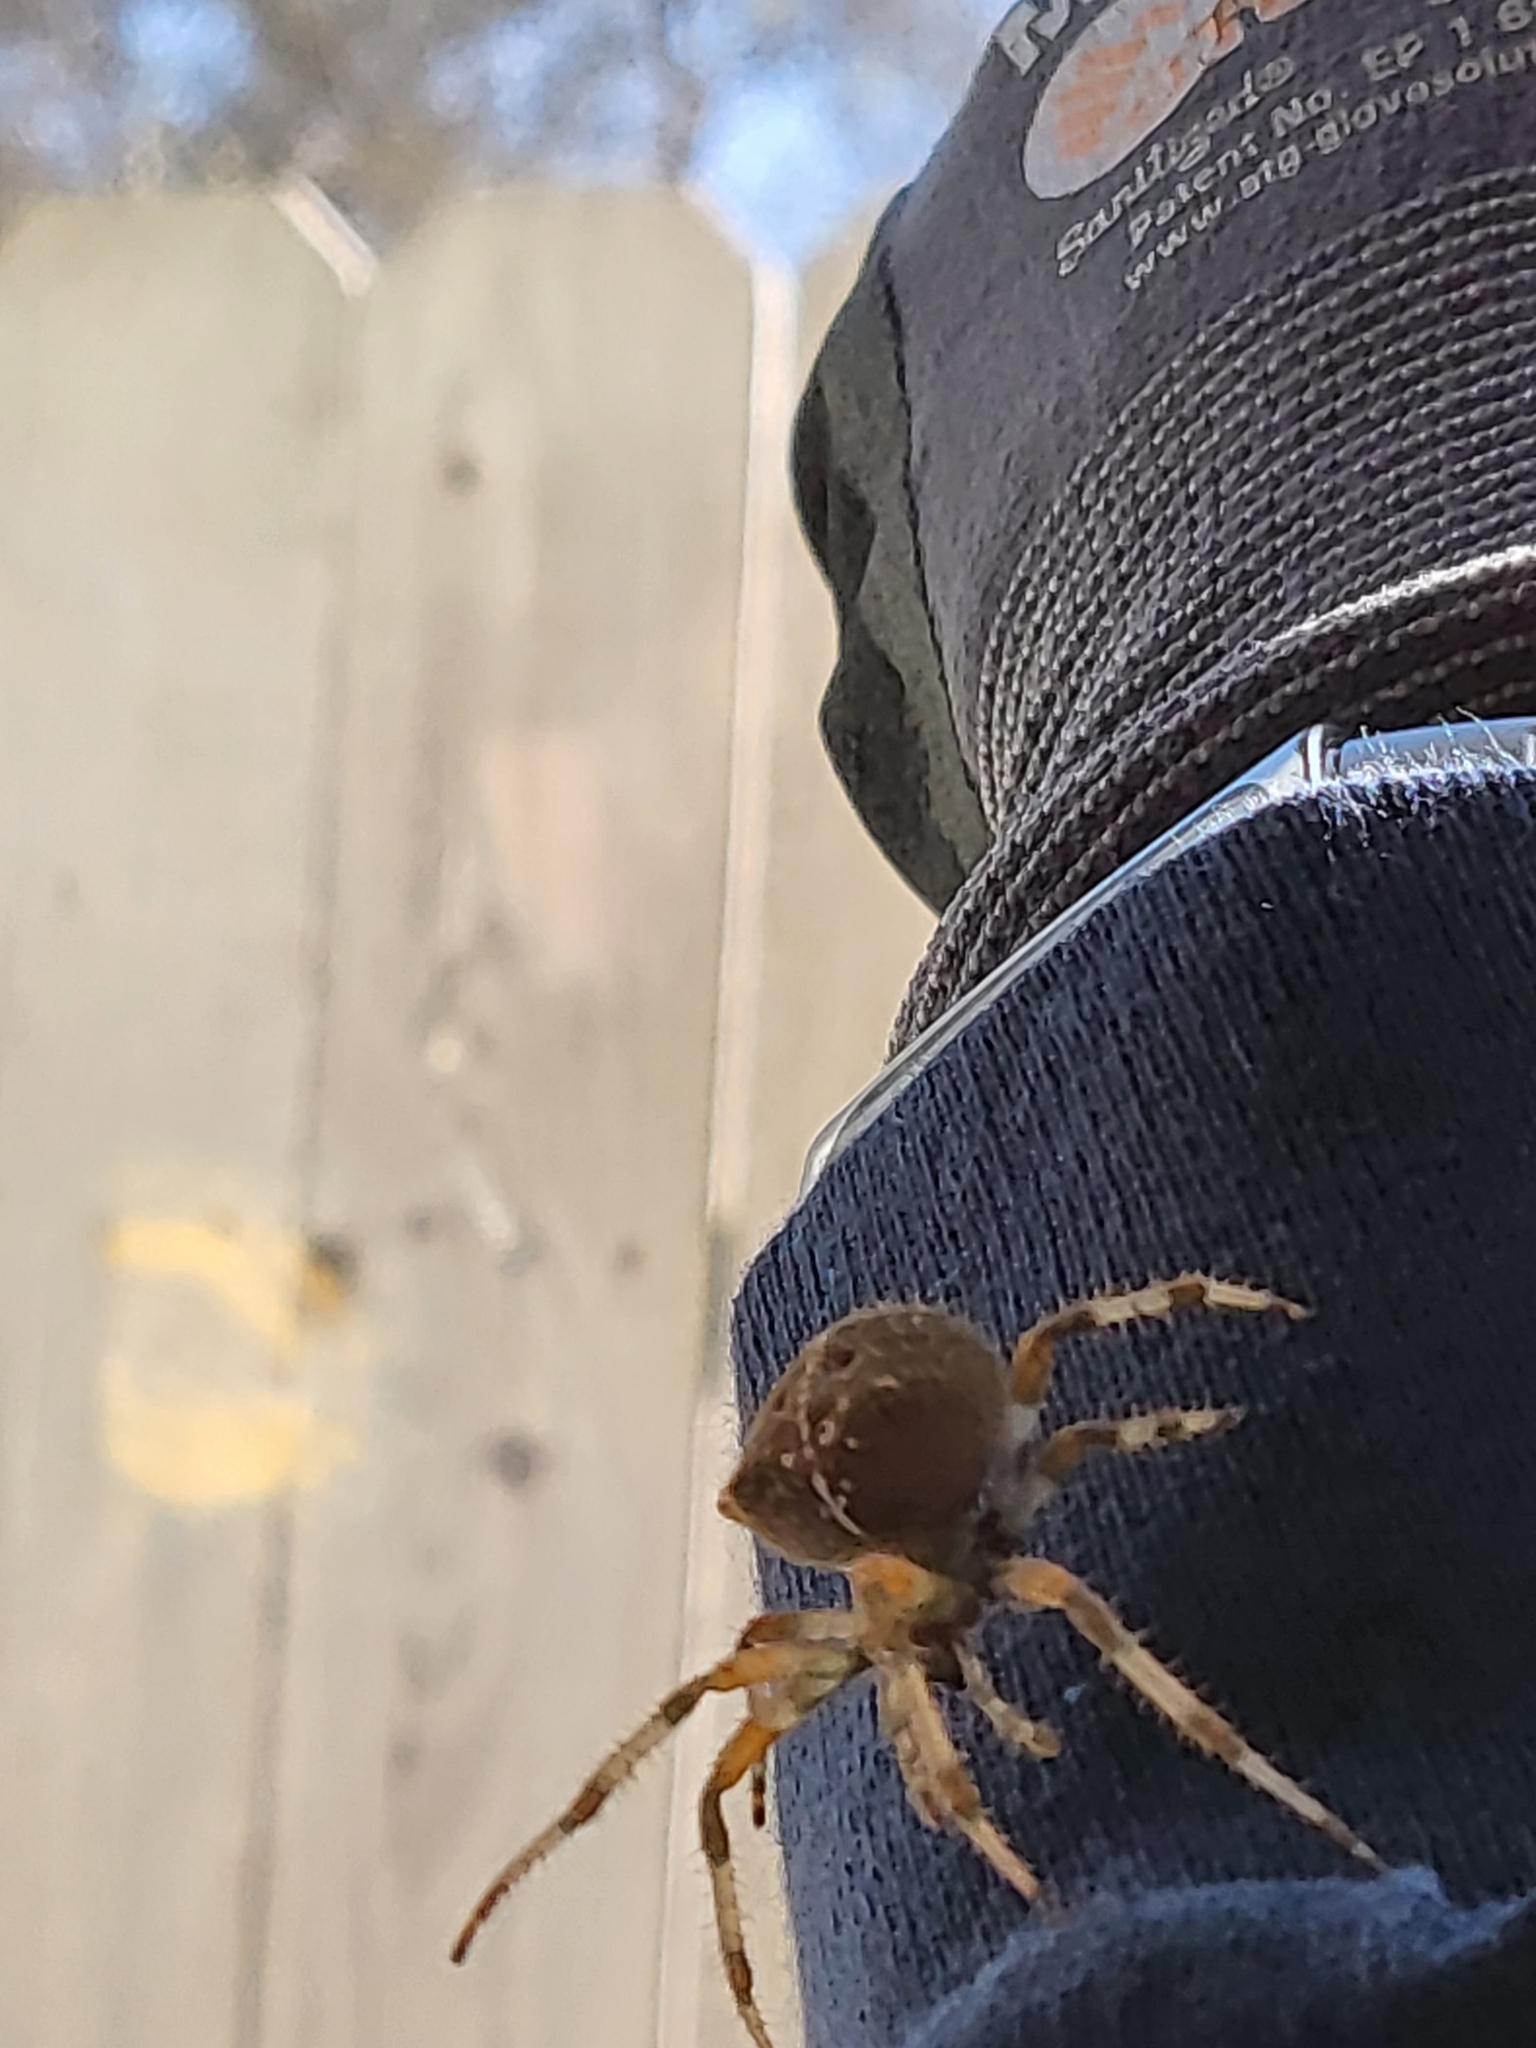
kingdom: Animalia
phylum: Arthropoda
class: Arachnida
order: Araneae
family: Araneidae
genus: Araneus
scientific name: Araneus gemma
